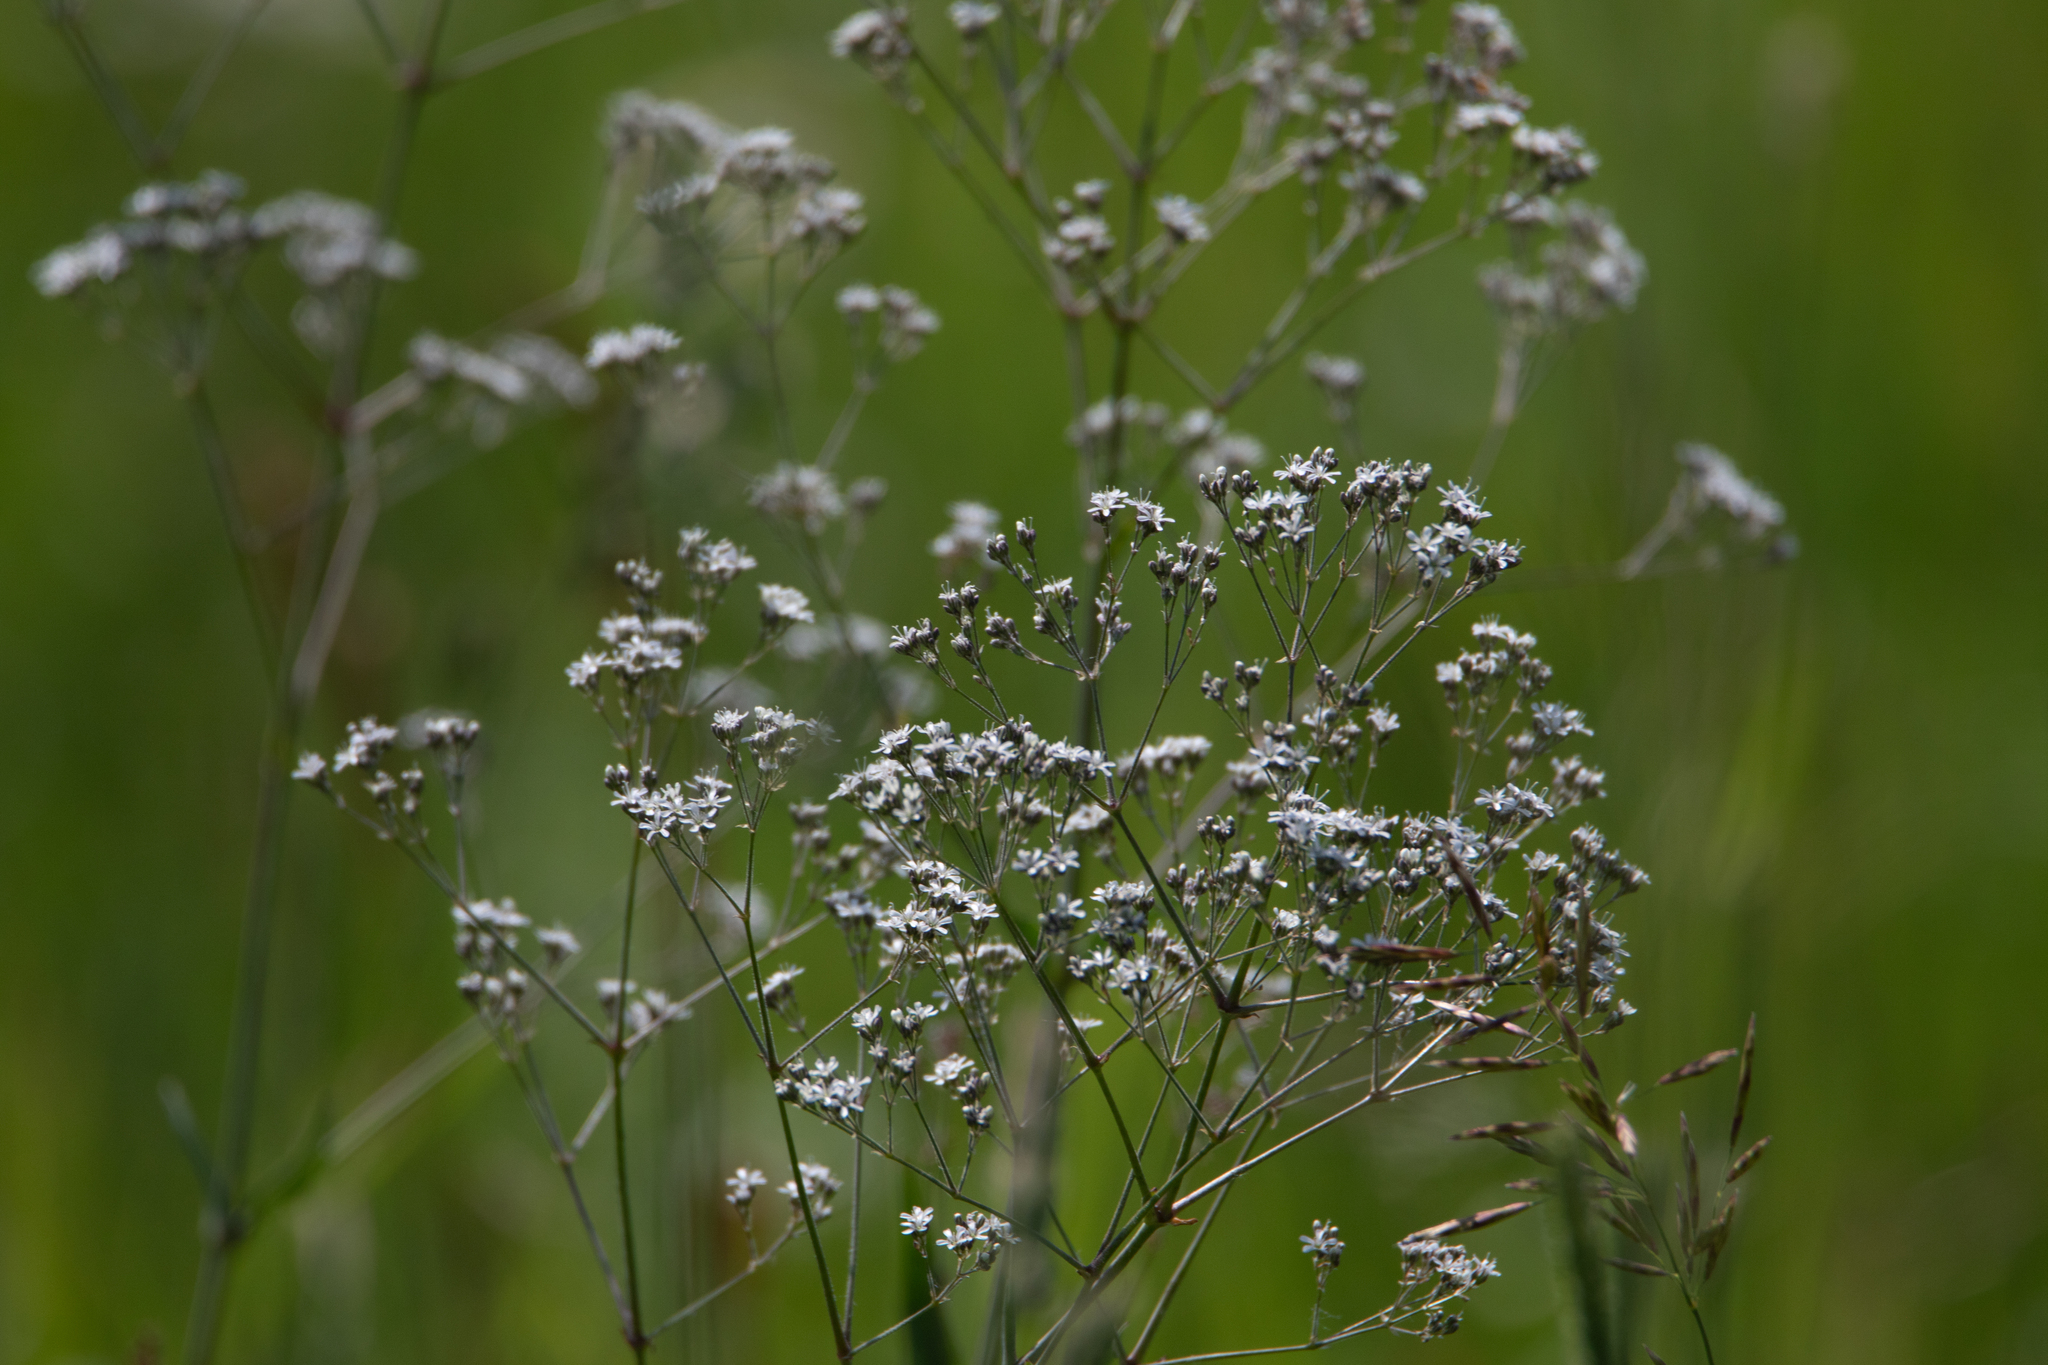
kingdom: Plantae
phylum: Tracheophyta
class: Magnoliopsida
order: Caryophyllales
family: Caryophyllaceae
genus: Gypsophila
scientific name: Gypsophila altissima
